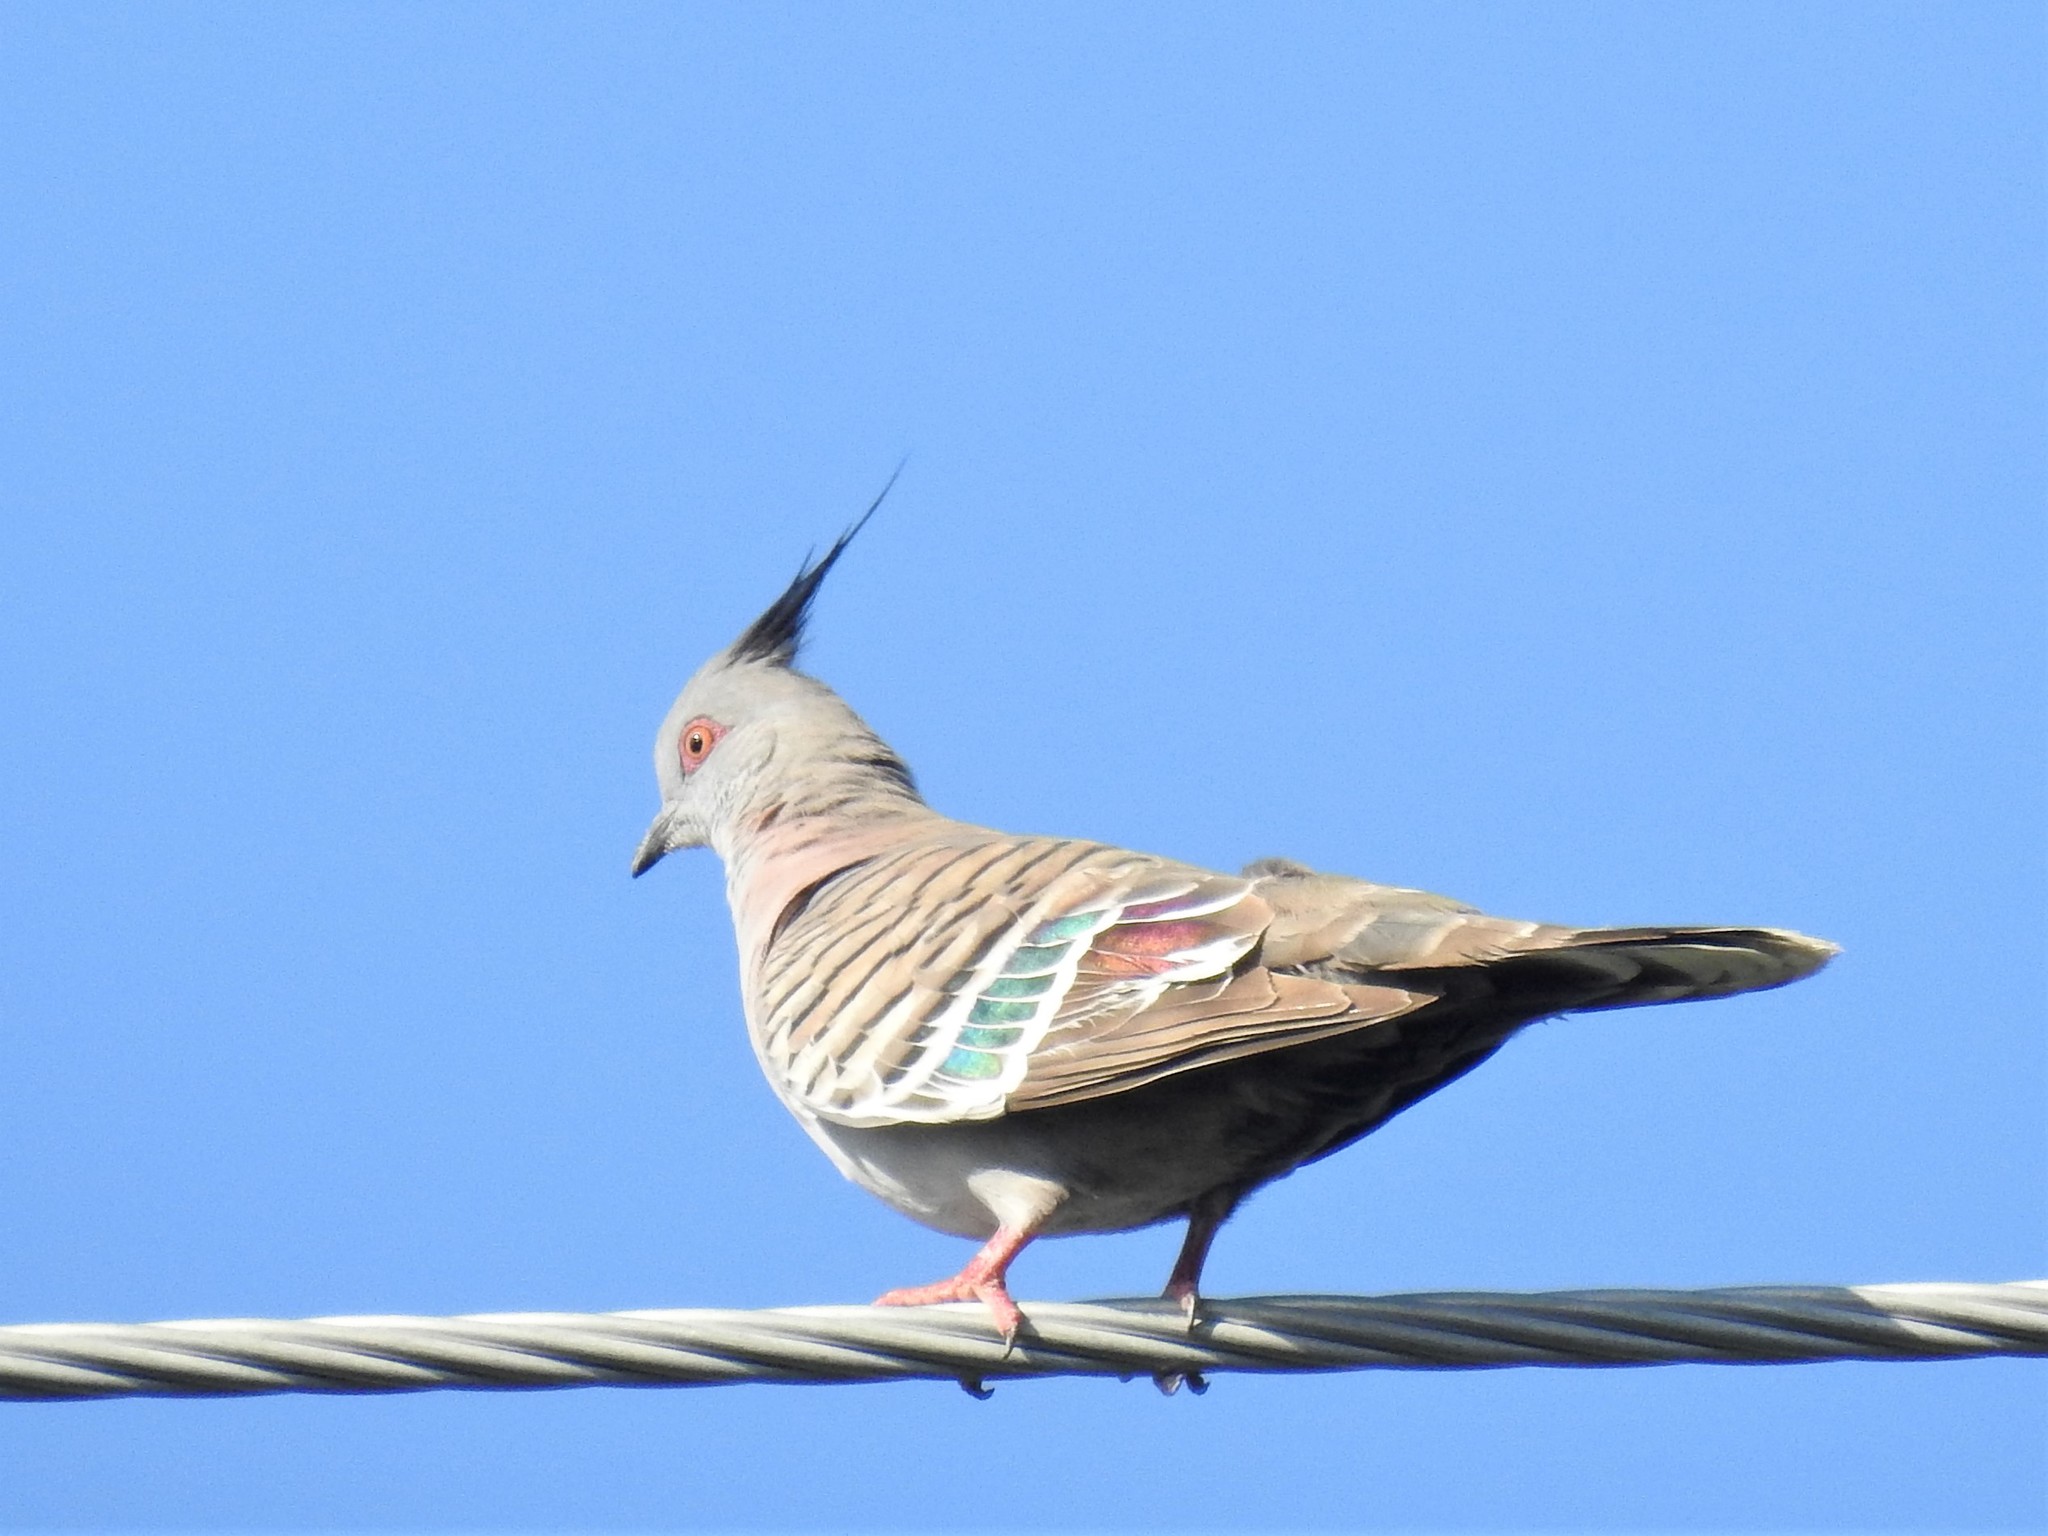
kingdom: Animalia
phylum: Chordata
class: Aves
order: Columbiformes
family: Columbidae
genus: Ocyphaps
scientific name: Ocyphaps lophotes
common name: Crested pigeon
